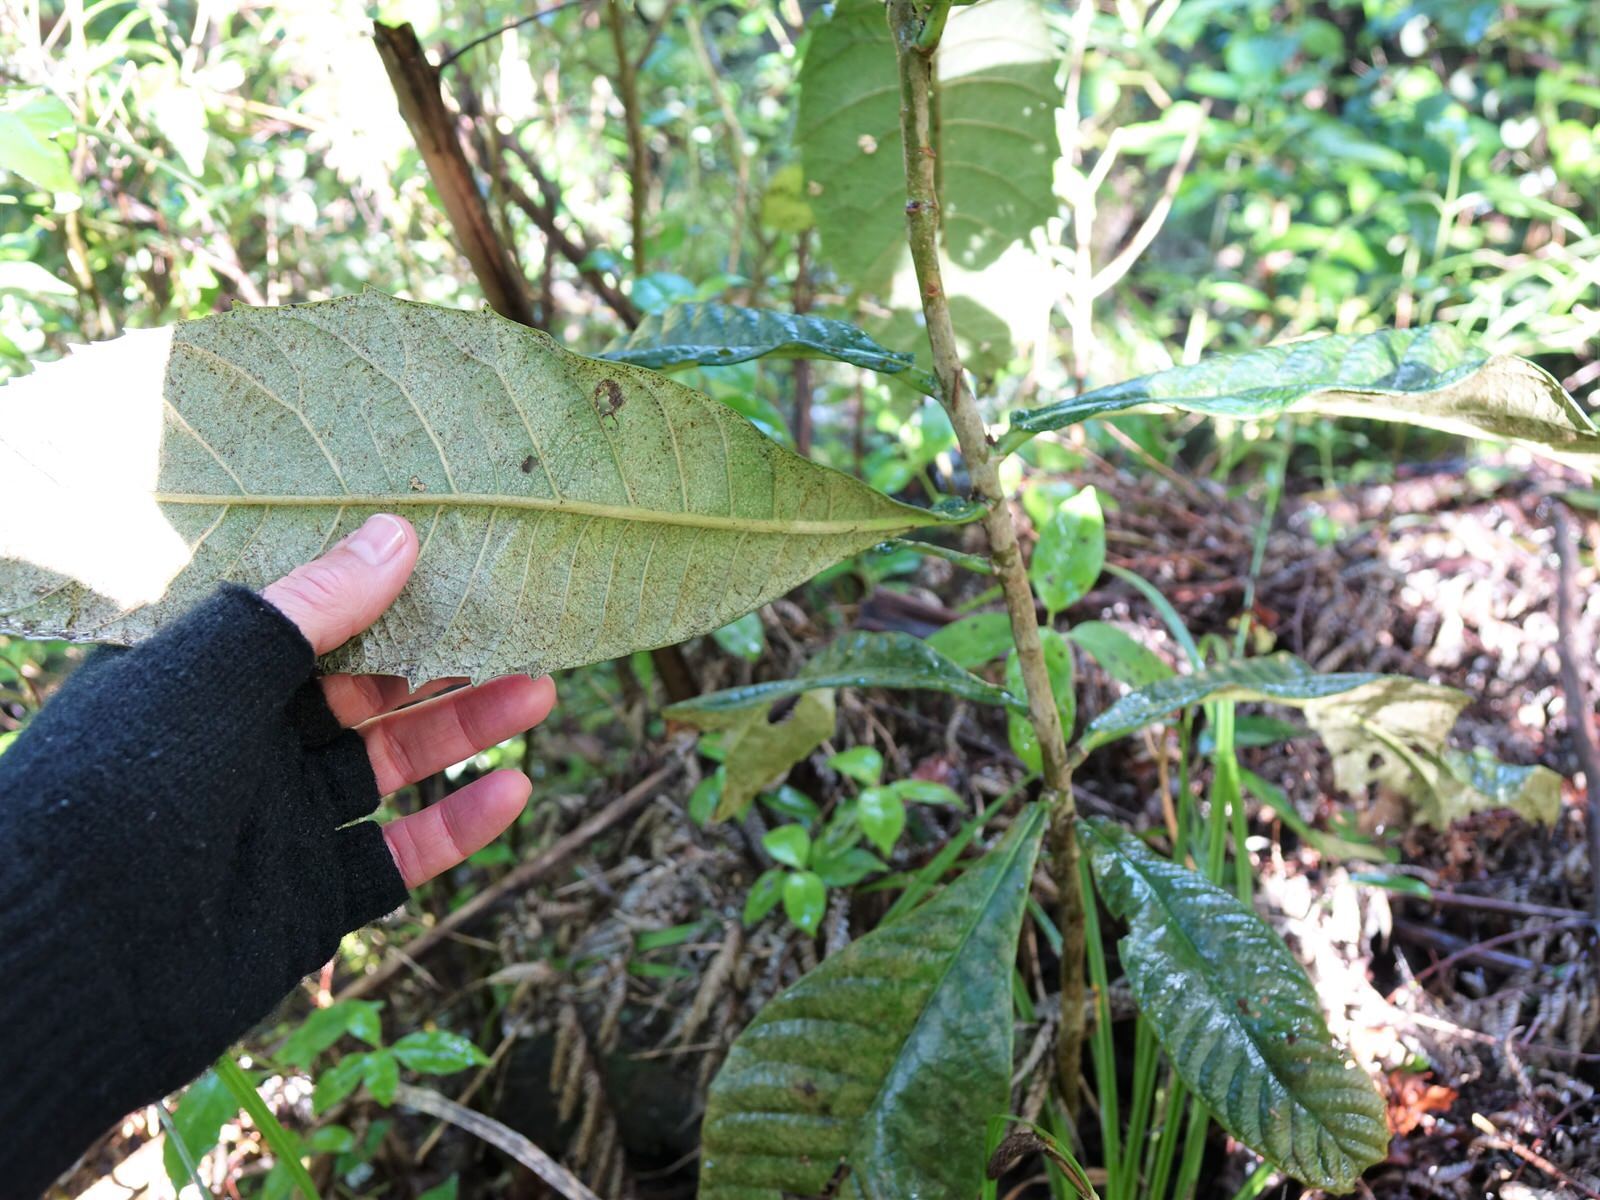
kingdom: Plantae
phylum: Tracheophyta
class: Magnoliopsida
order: Rosales
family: Rosaceae
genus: Rhaphiolepis
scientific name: Rhaphiolepis bibas
